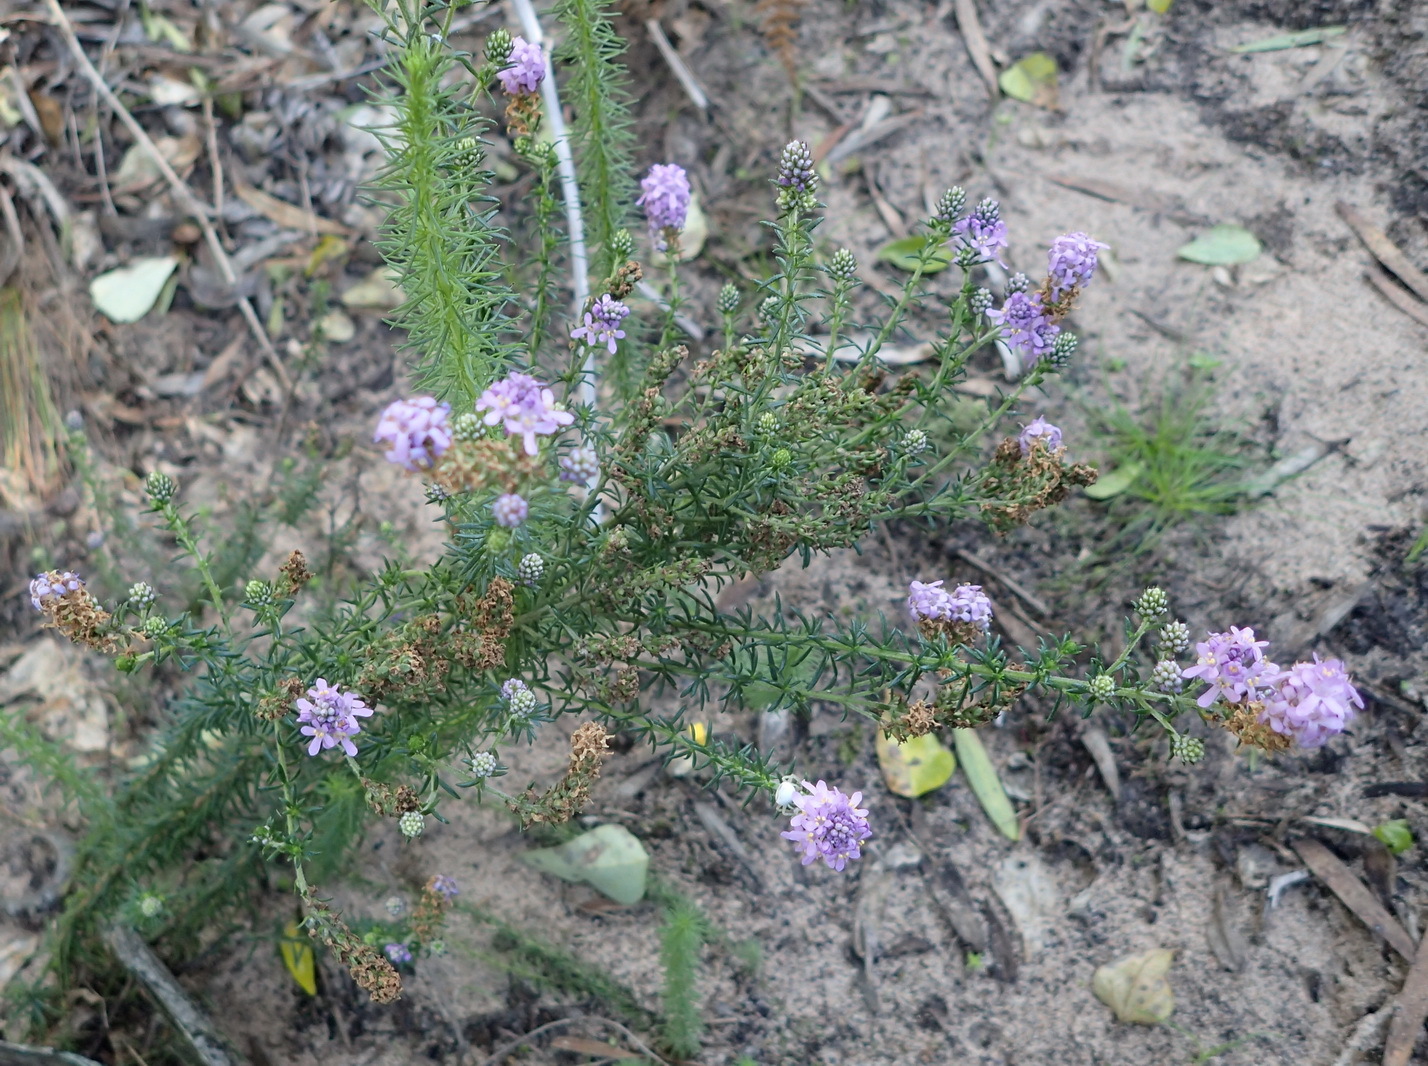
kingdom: Plantae
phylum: Tracheophyta
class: Magnoliopsida
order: Lamiales
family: Scrophulariaceae
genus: Selago
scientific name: Selago villicaulis
